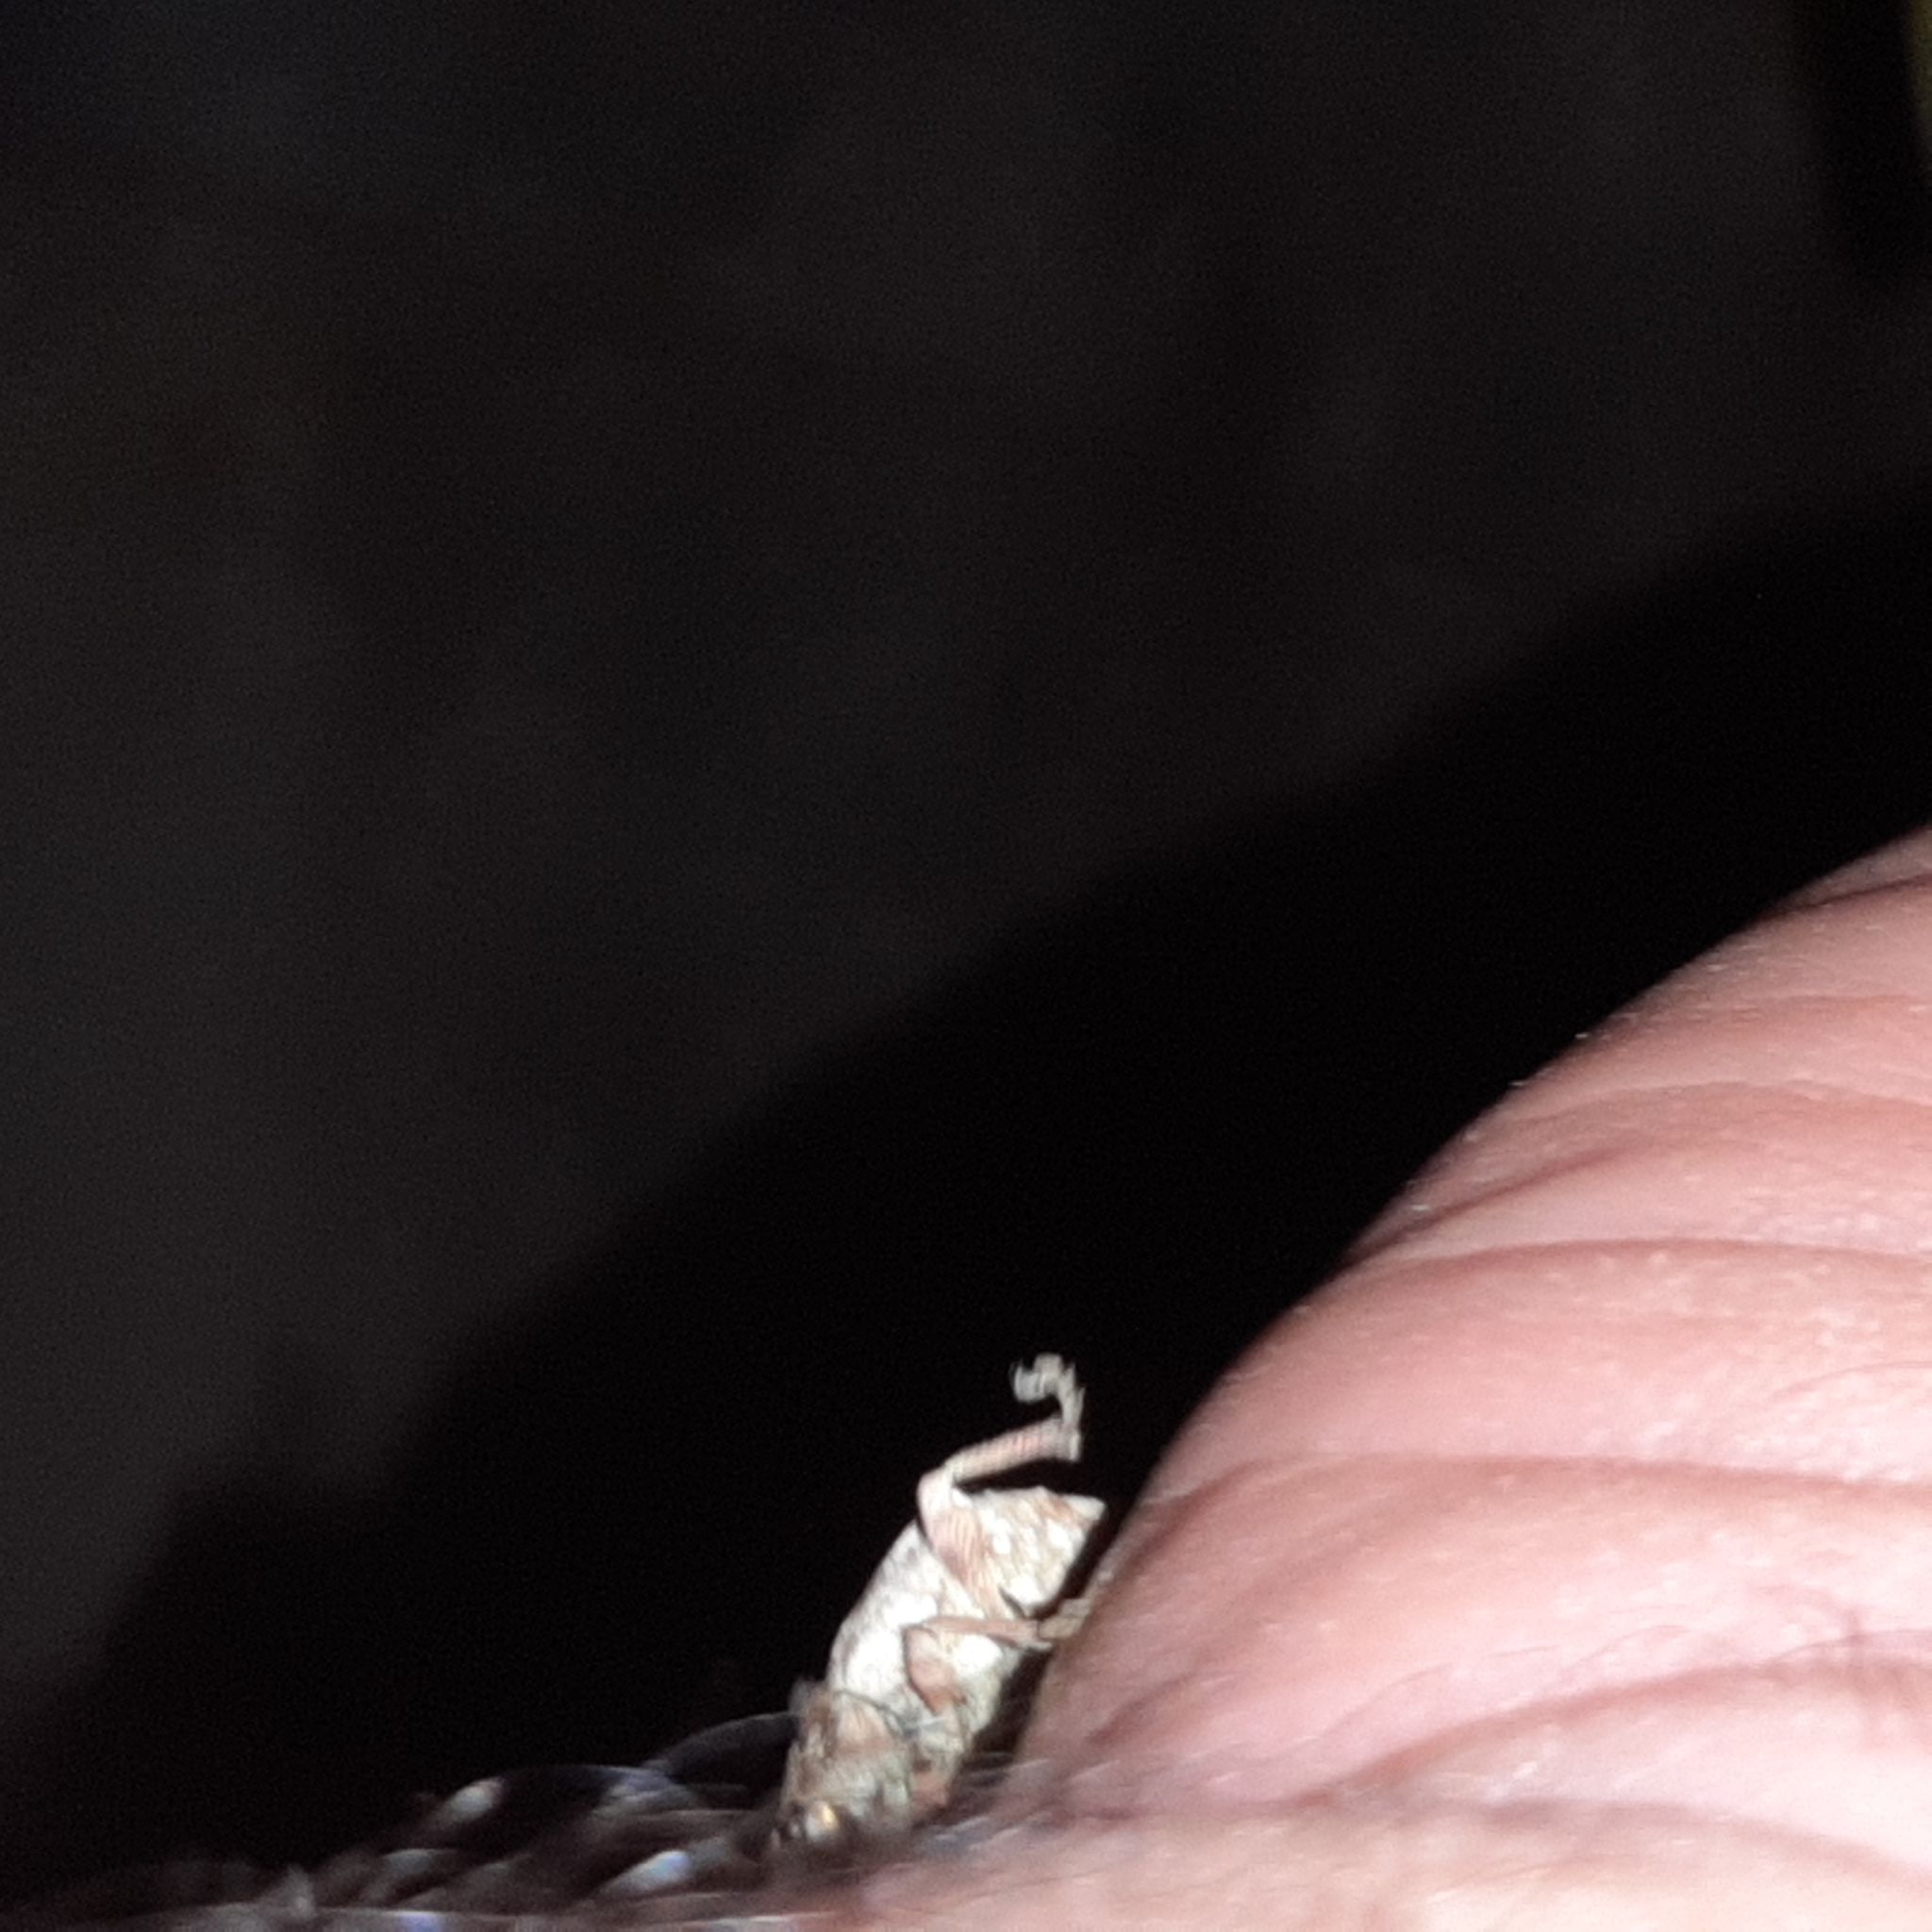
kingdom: Animalia
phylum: Arthropoda
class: Insecta
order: Coleoptera
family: Curculionidae
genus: Claeoteges
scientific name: Claeoteges virosa
